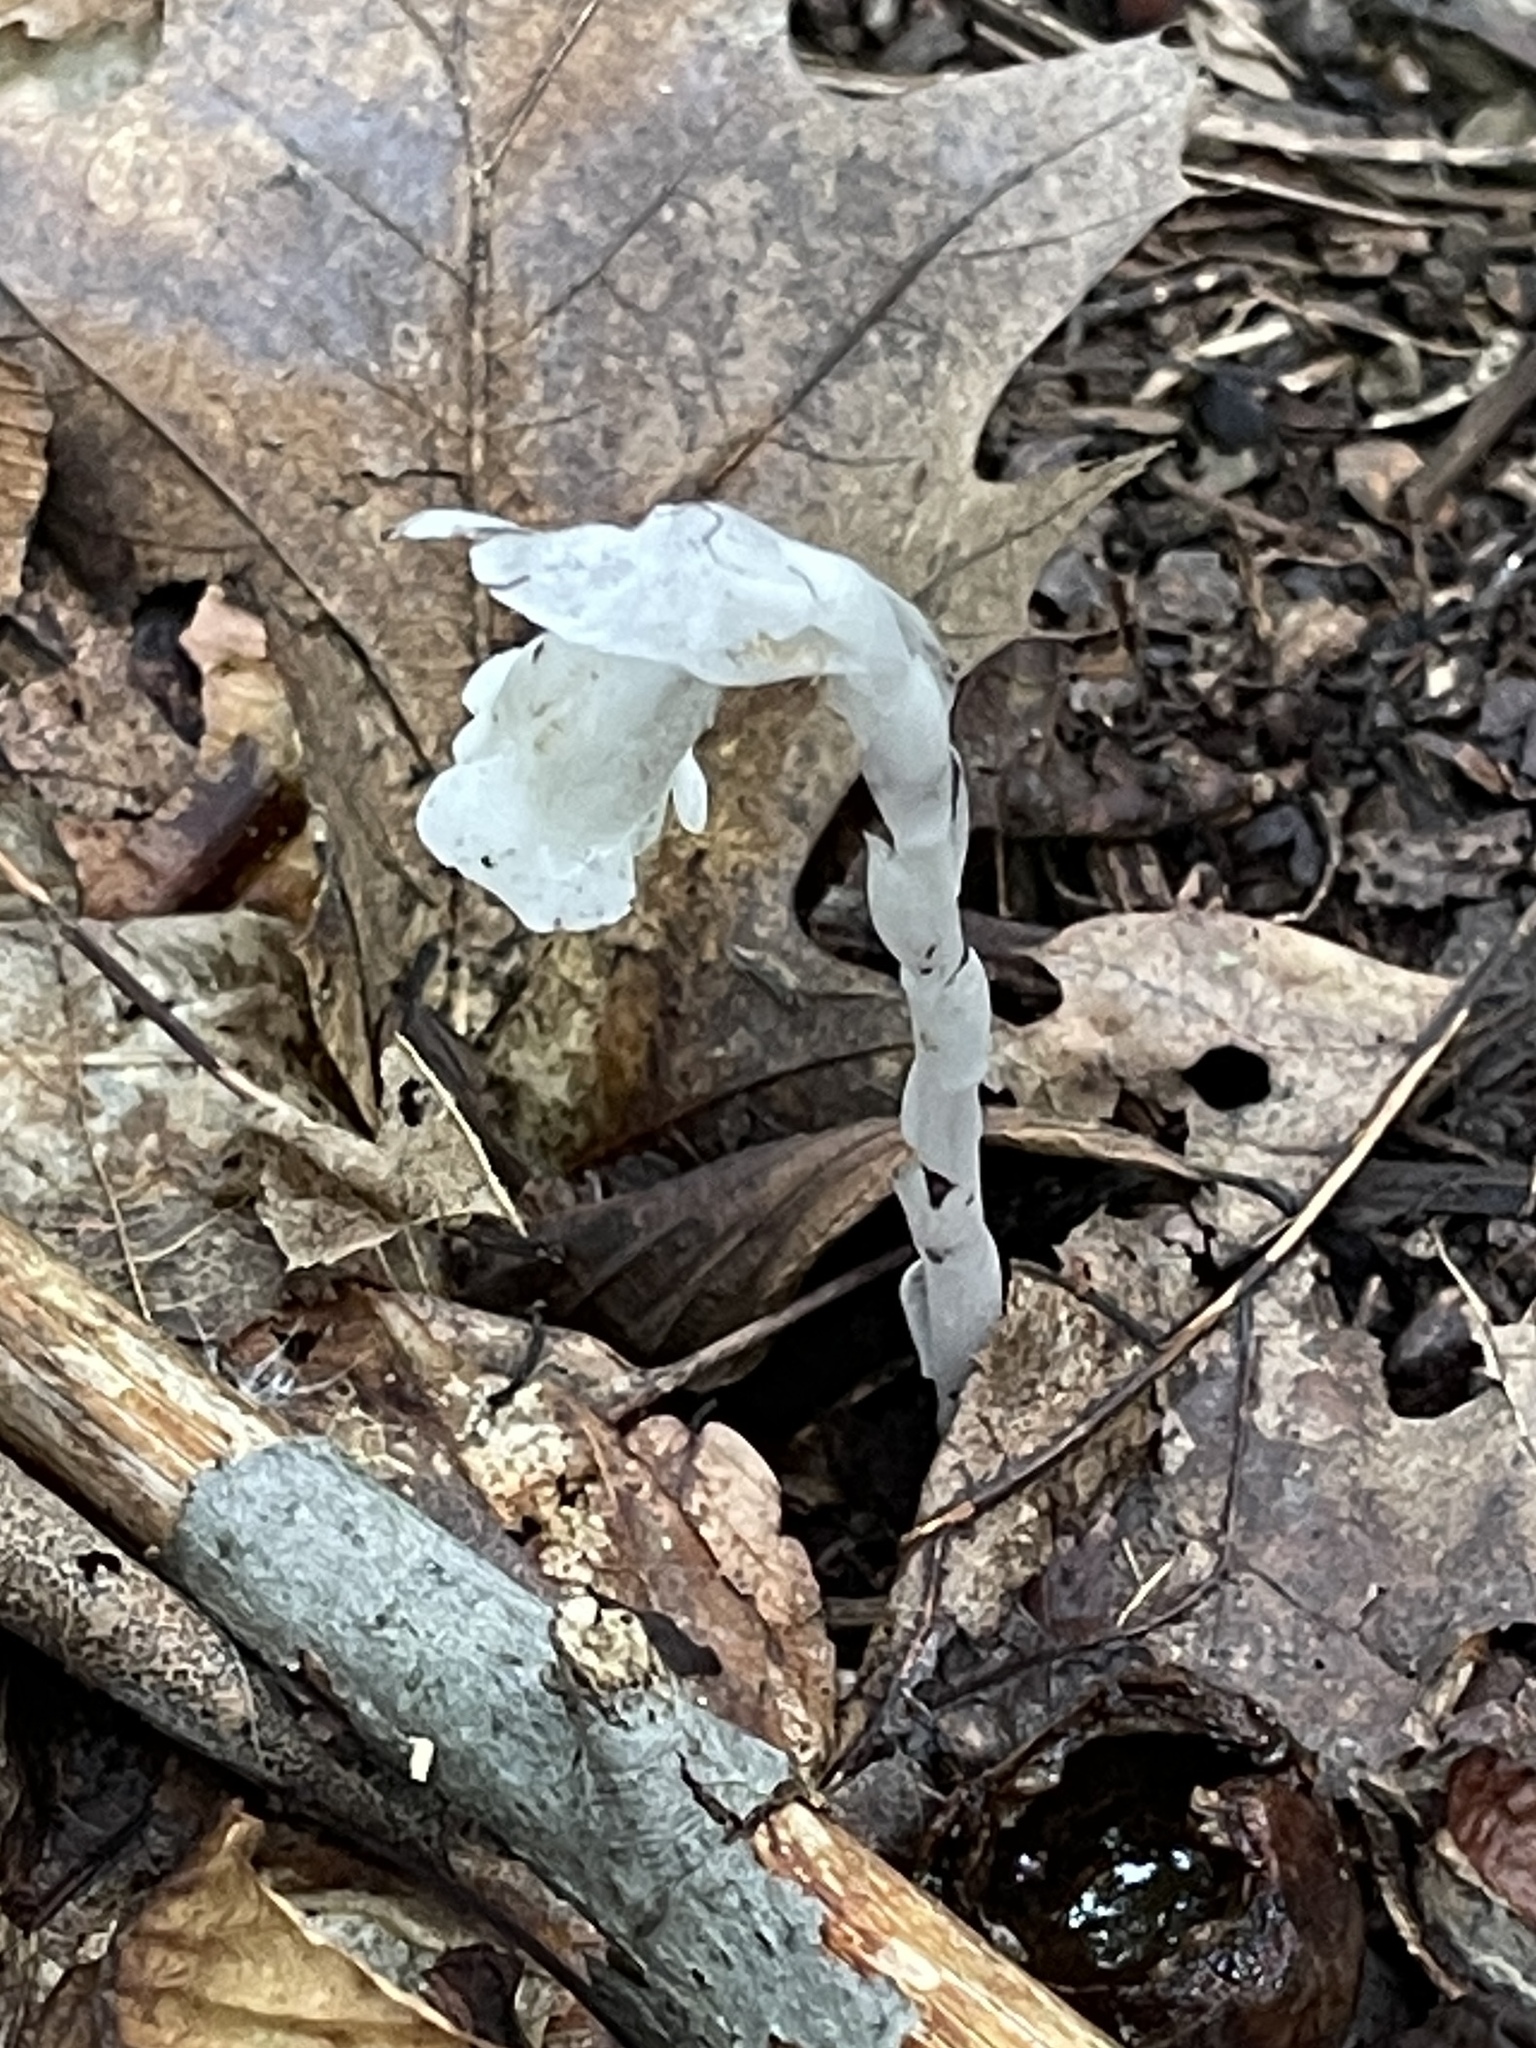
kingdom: Plantae
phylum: Tracheophyta
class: Magnoliopsida
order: Ericales
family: Ericaceae
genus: Monotropa
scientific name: Monotropa uniflora
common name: Convulsion root
